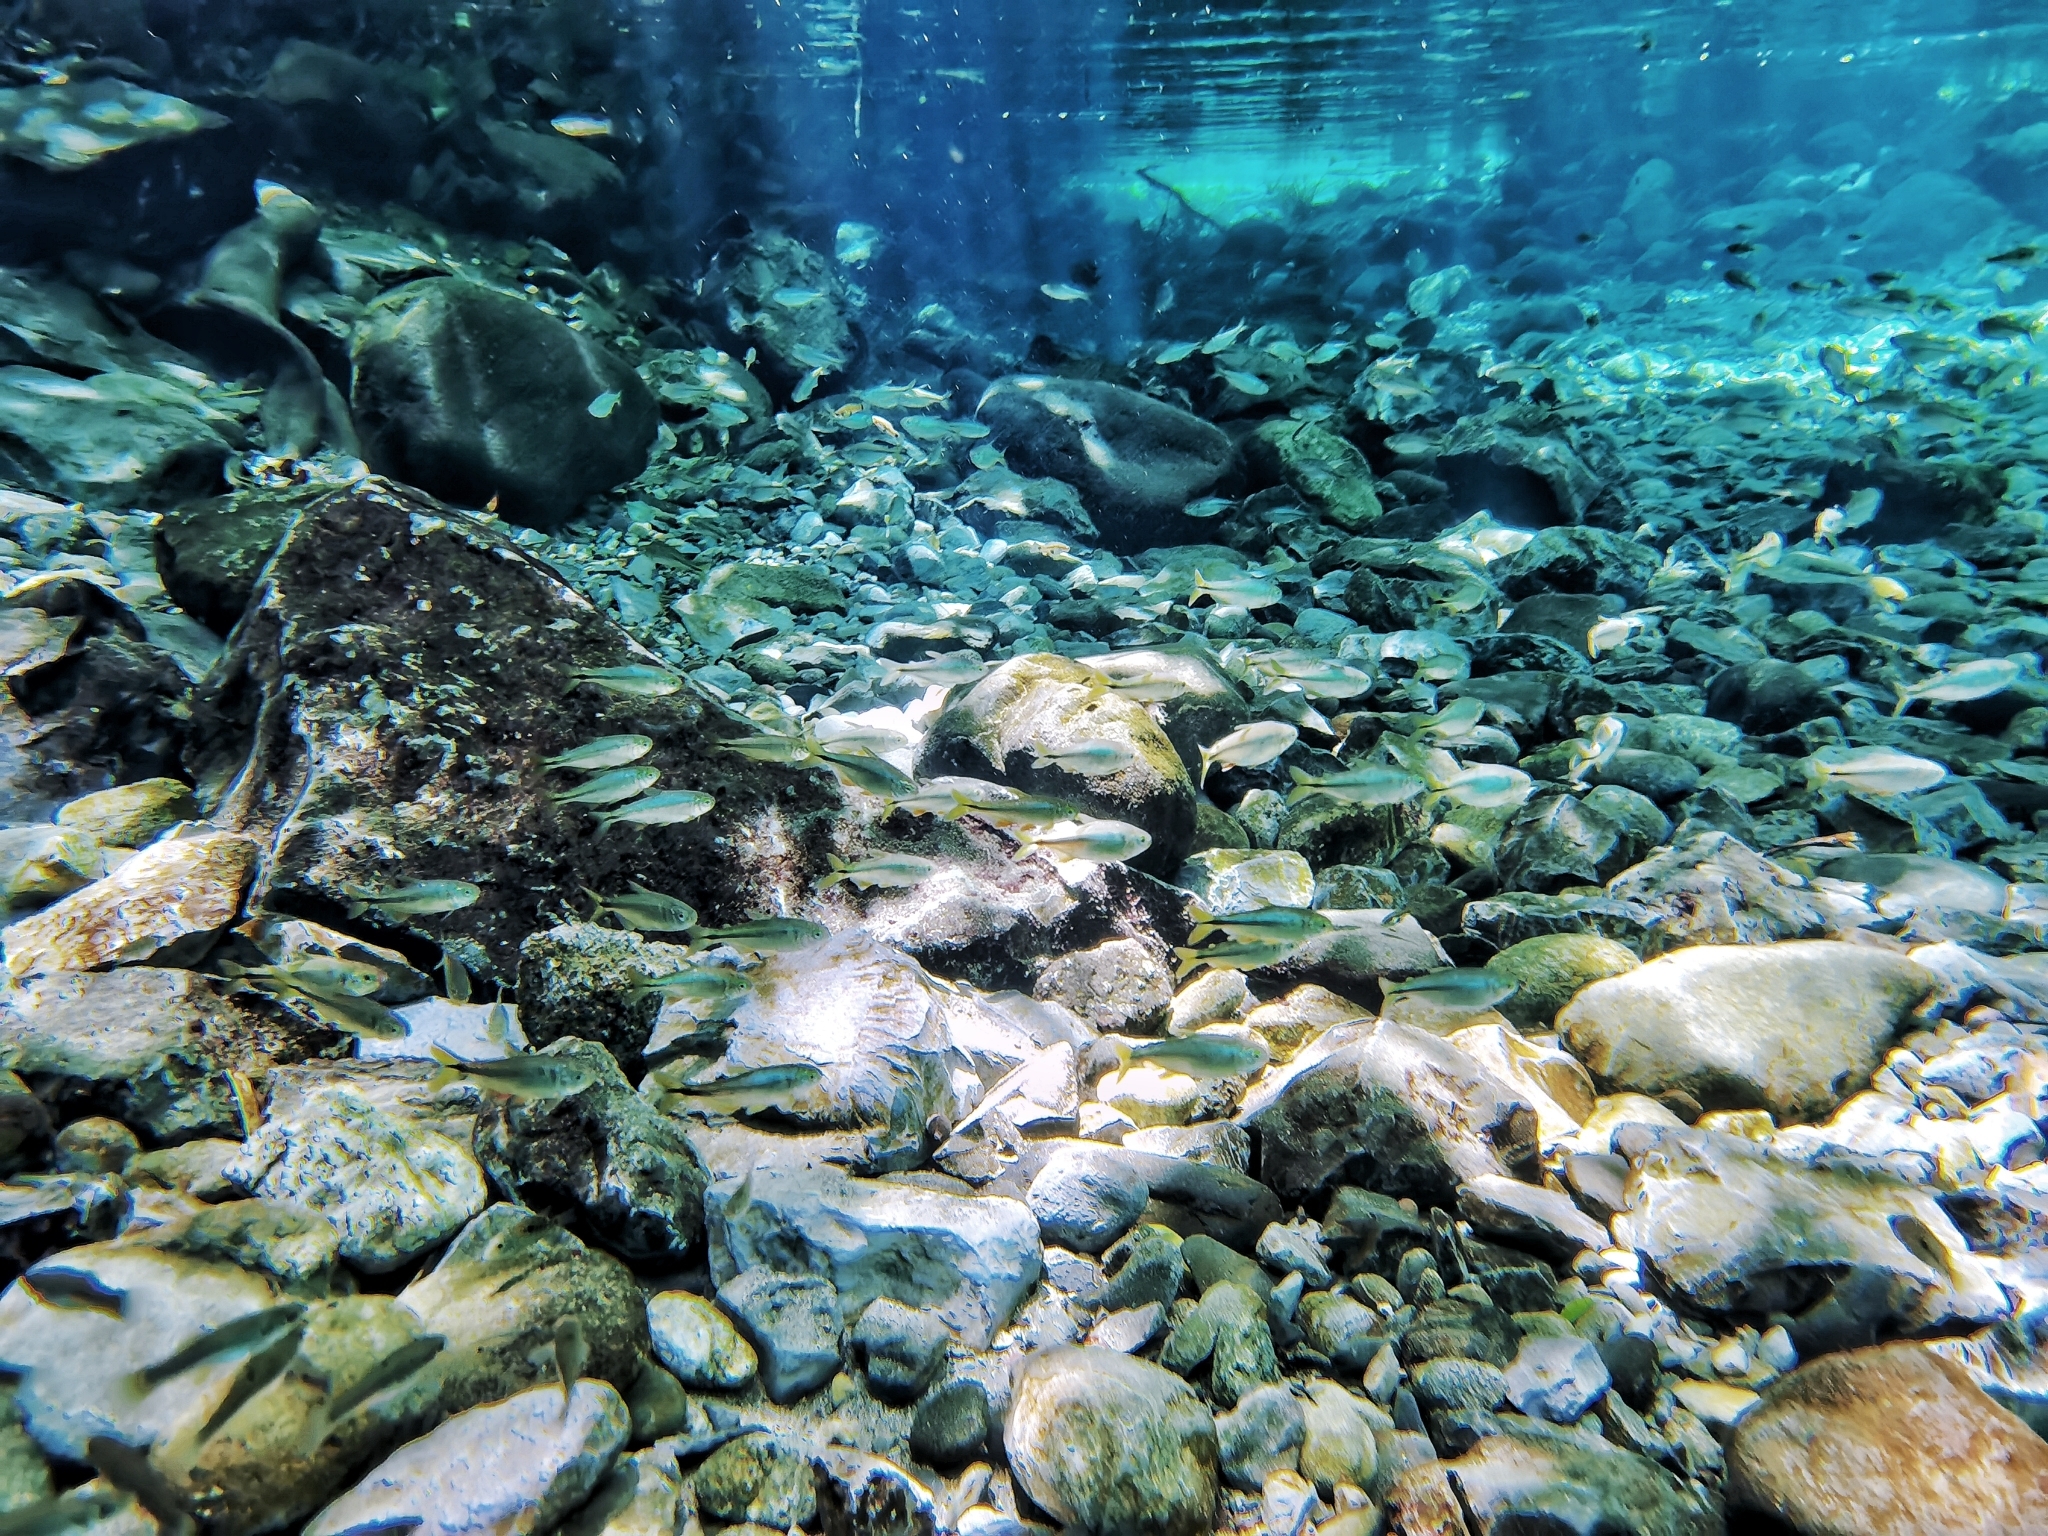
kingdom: Animalia
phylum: Chordata
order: Characiformes
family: Characidae
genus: Astyanax
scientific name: Astyanax mexicanus
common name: Mexican tetra
